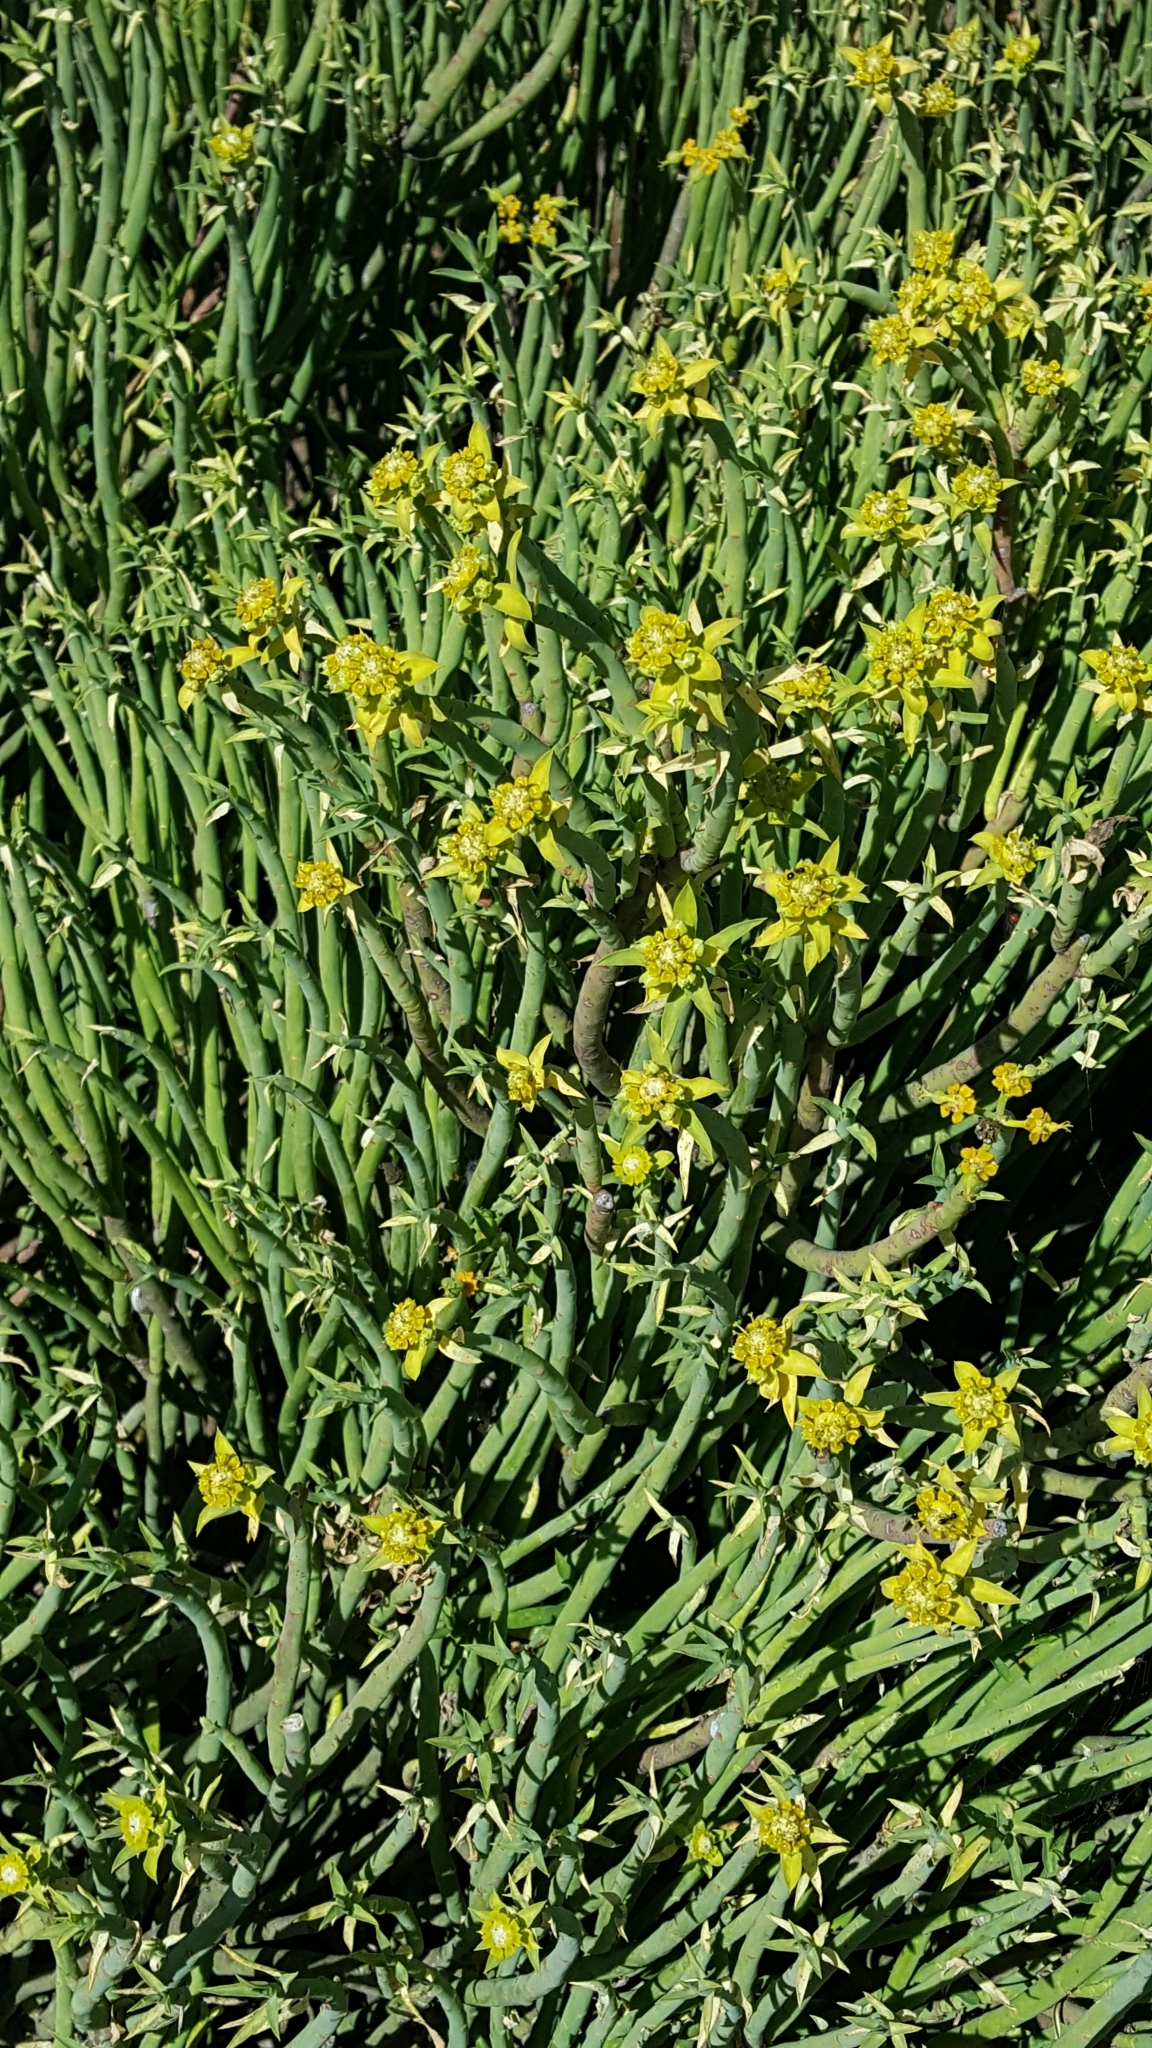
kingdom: Plantae
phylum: Tracheophyta
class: Magnoliopsida
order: Malpighiales
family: Euphorbiaceae
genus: Euphorbia
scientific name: Euphorbia mauritanica
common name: Jackal's-food
